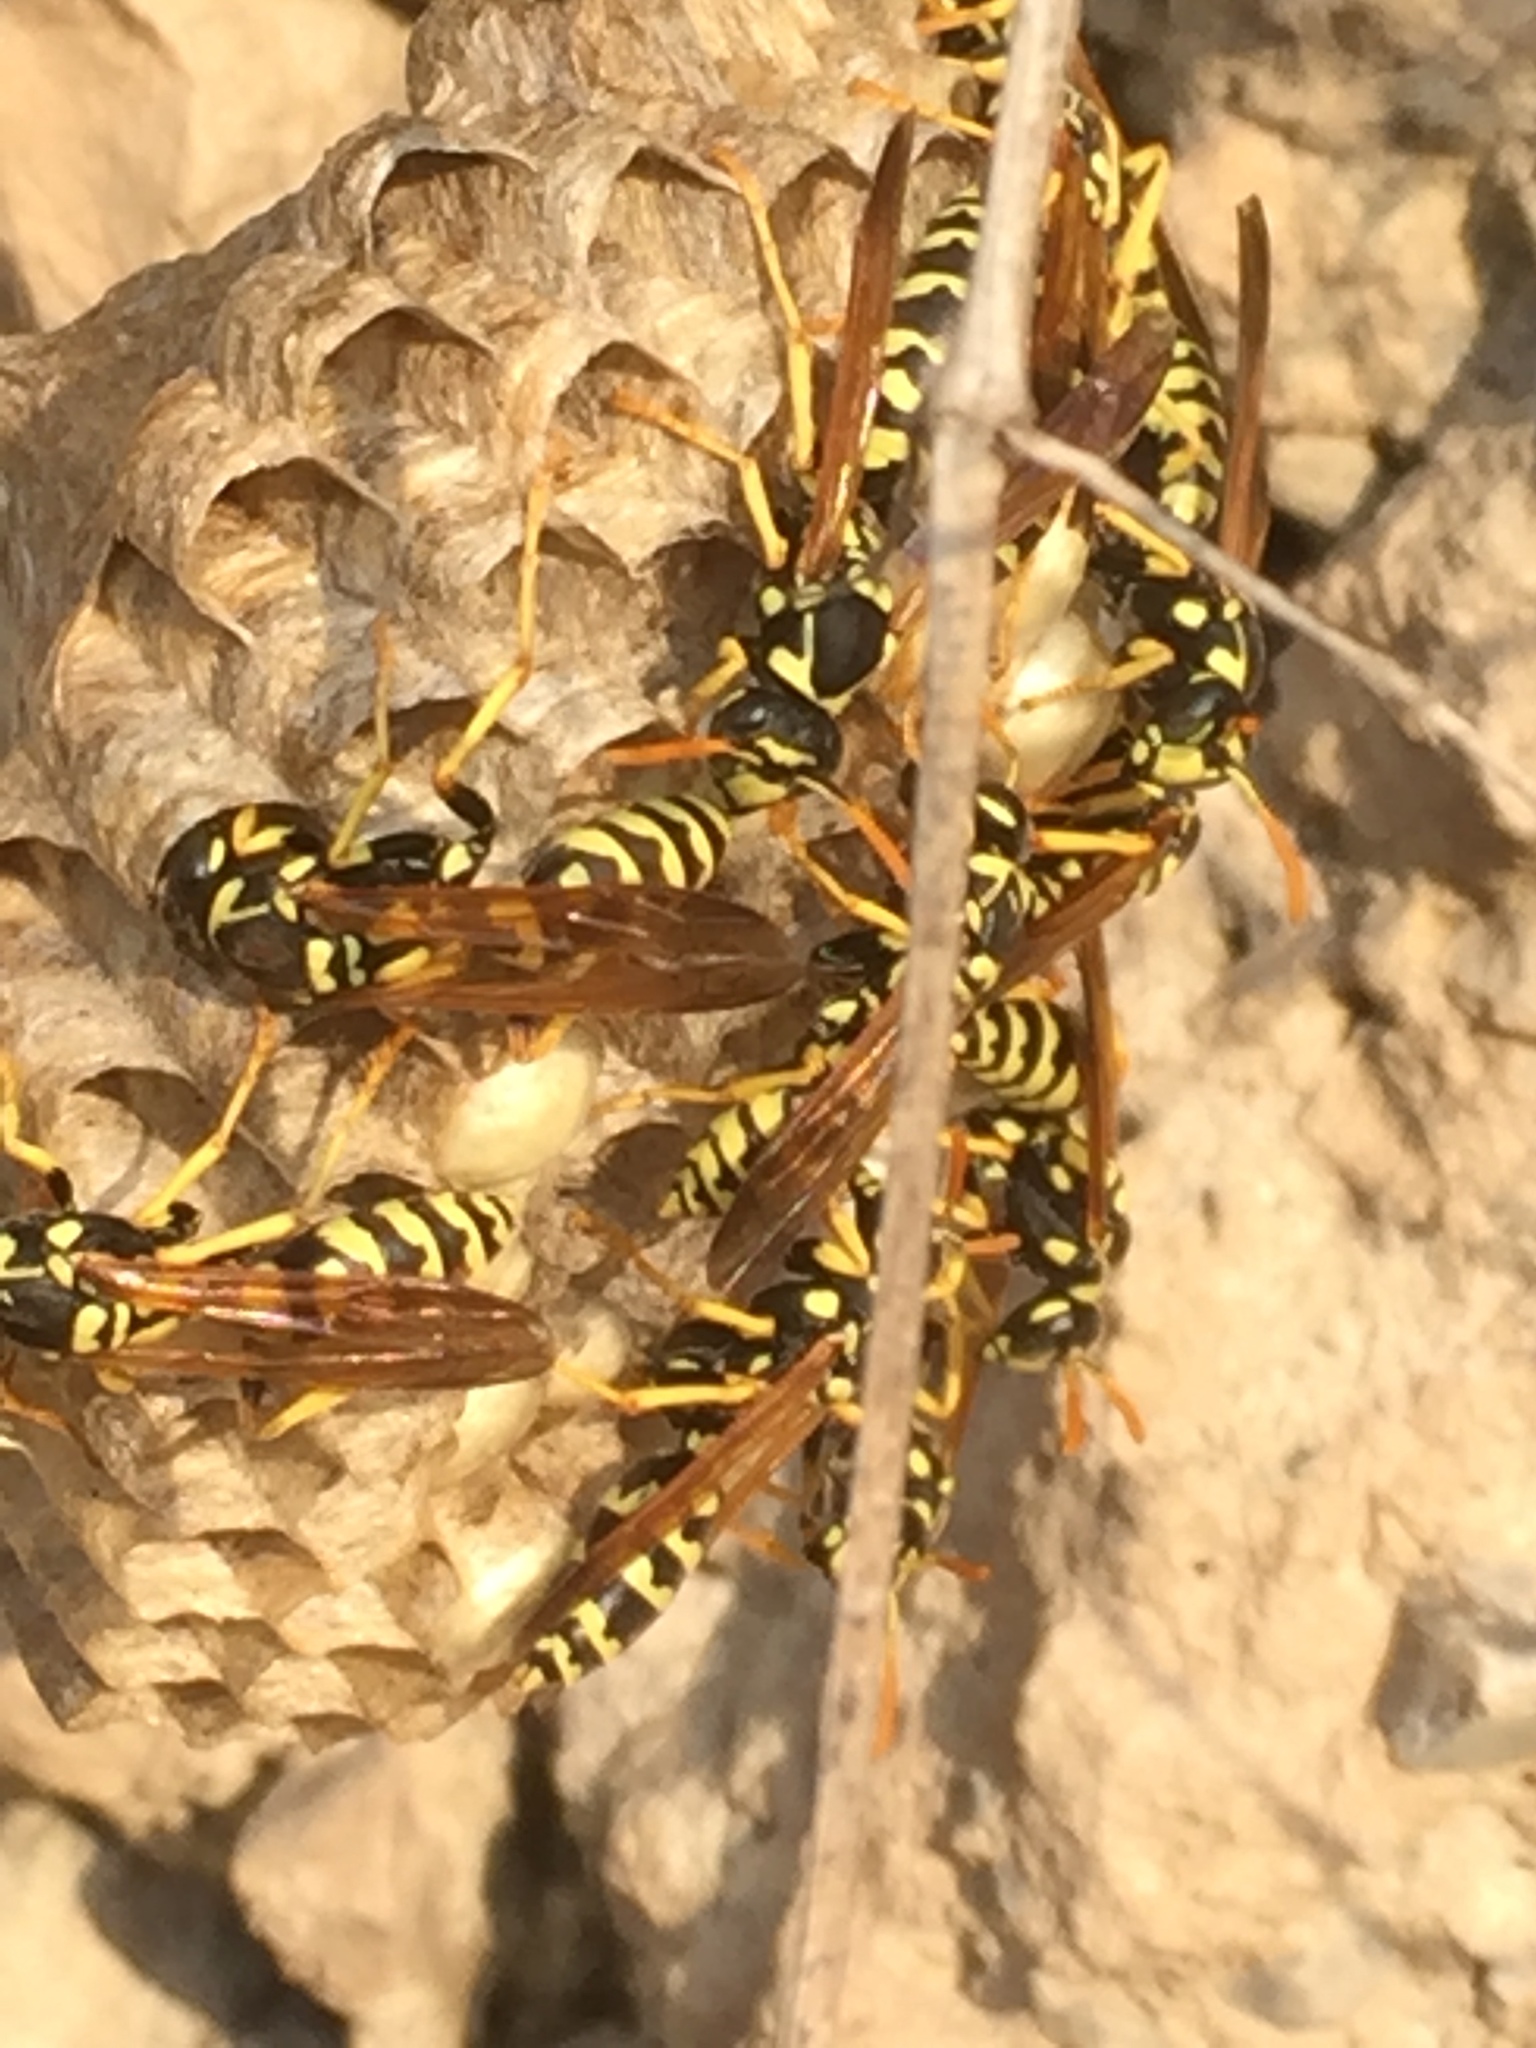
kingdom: Animalia
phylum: Arthropoda
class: Insecta
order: Hymenoptera
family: Eumenidae
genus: Polistes
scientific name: Polistes gallicus
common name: Paper wasp
